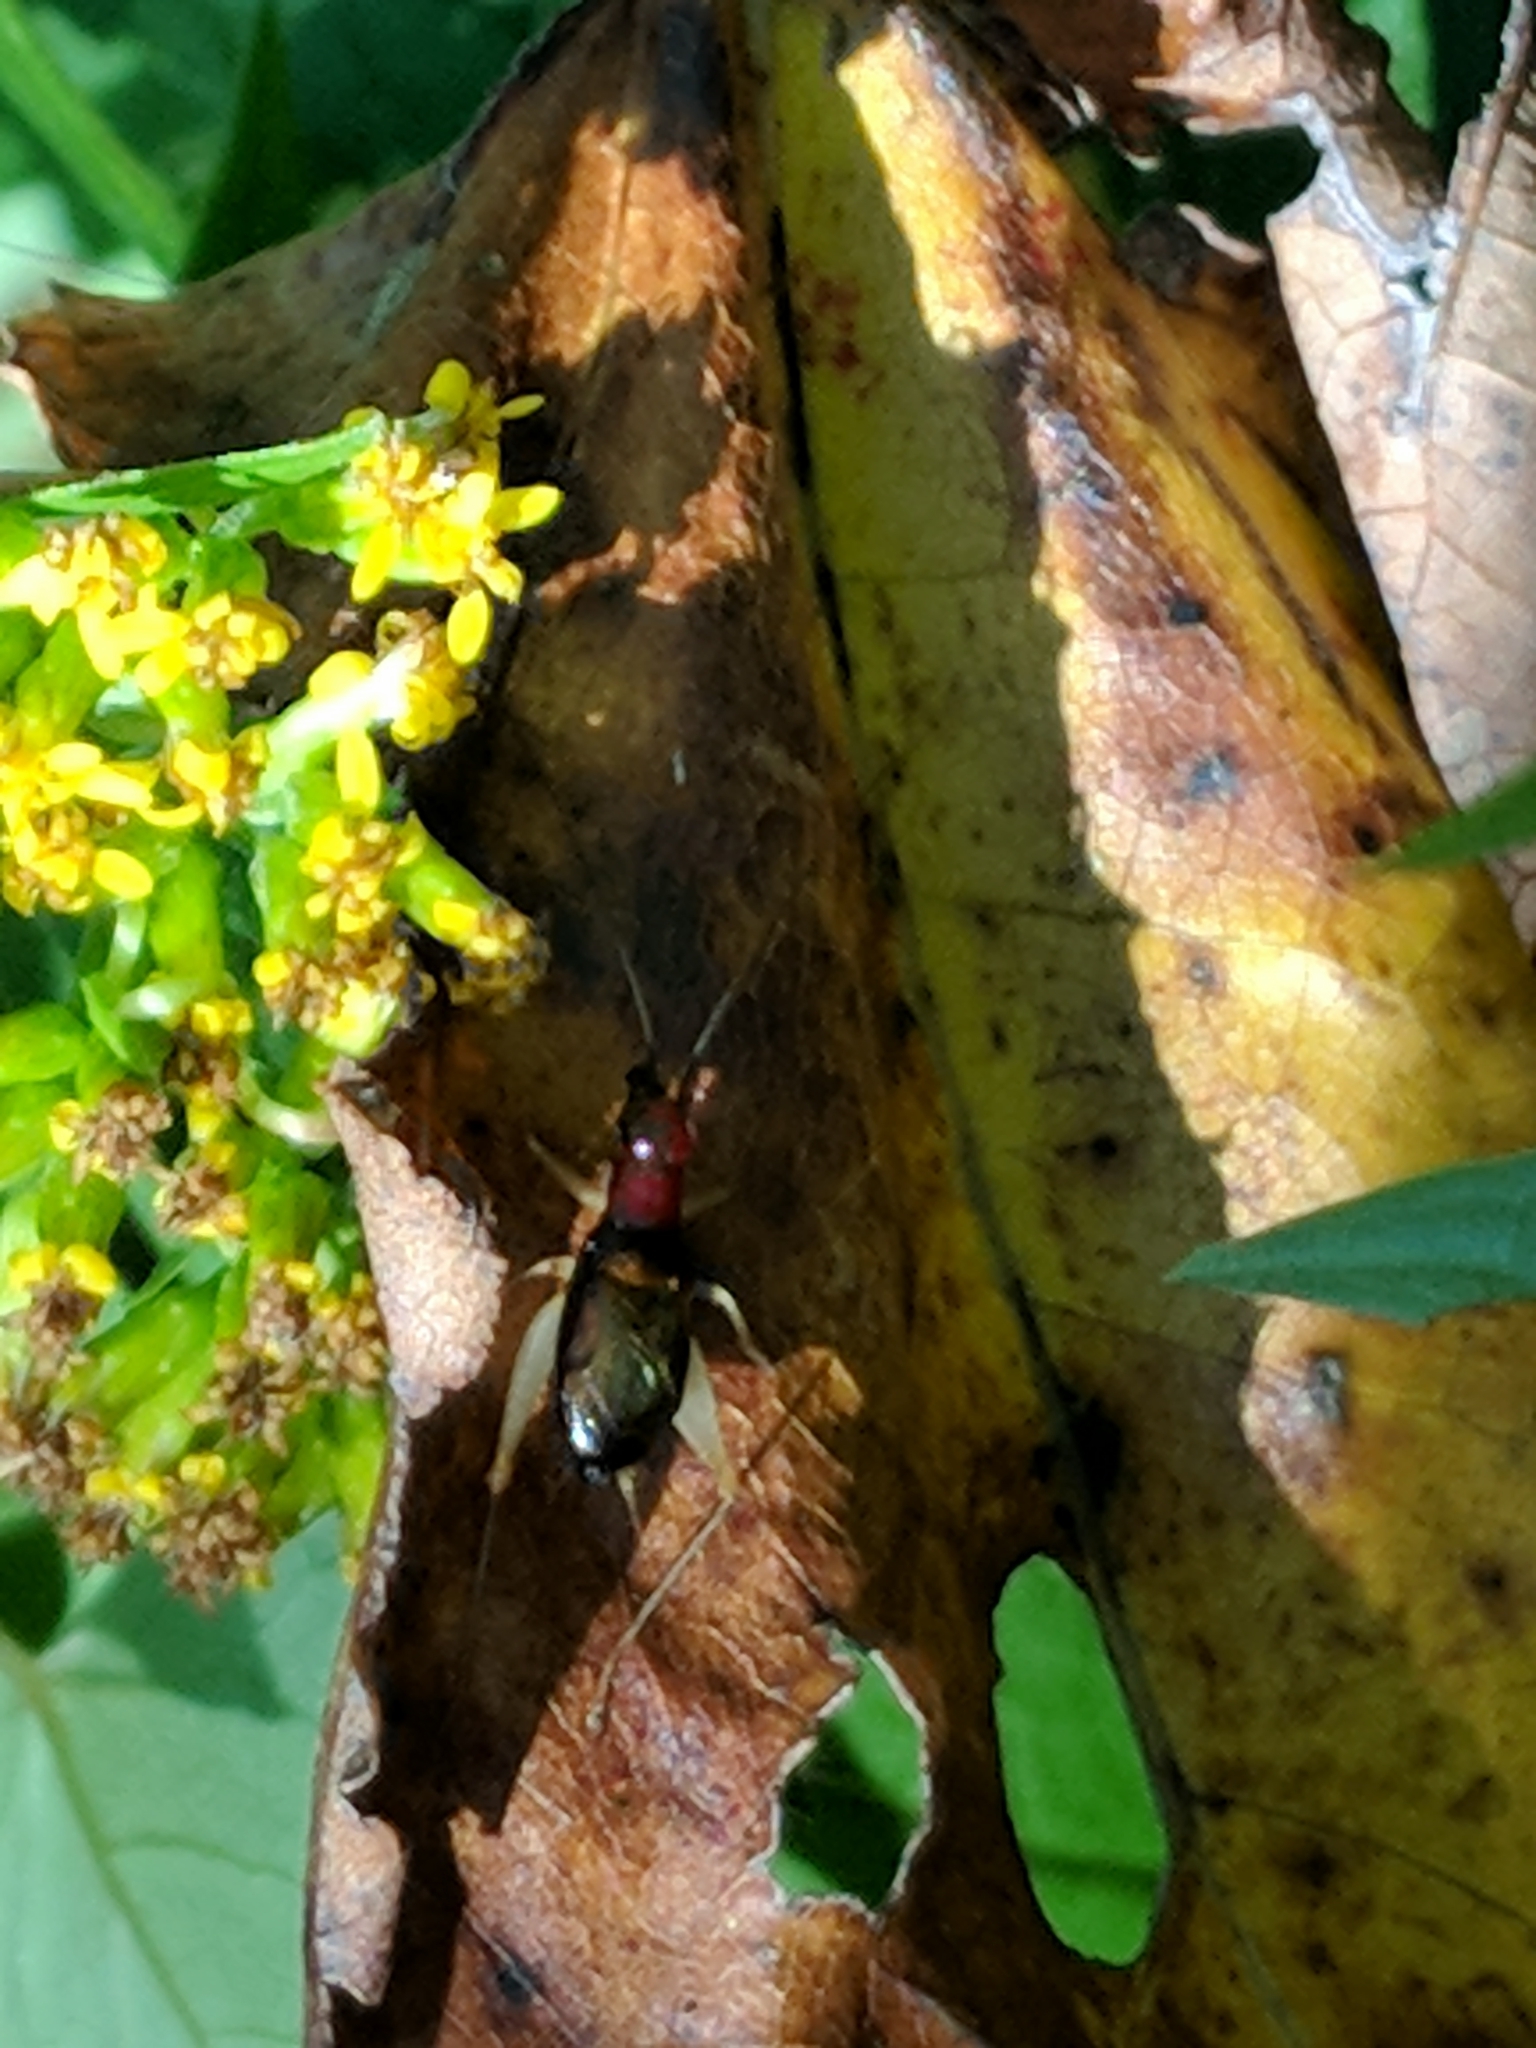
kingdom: Animalia
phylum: Arthropoda
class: Insecta
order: Orthoptera
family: Trigonidiidae
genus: Phyllopalpus
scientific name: Phyllopalpus pulchellus
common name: Handsome trig
